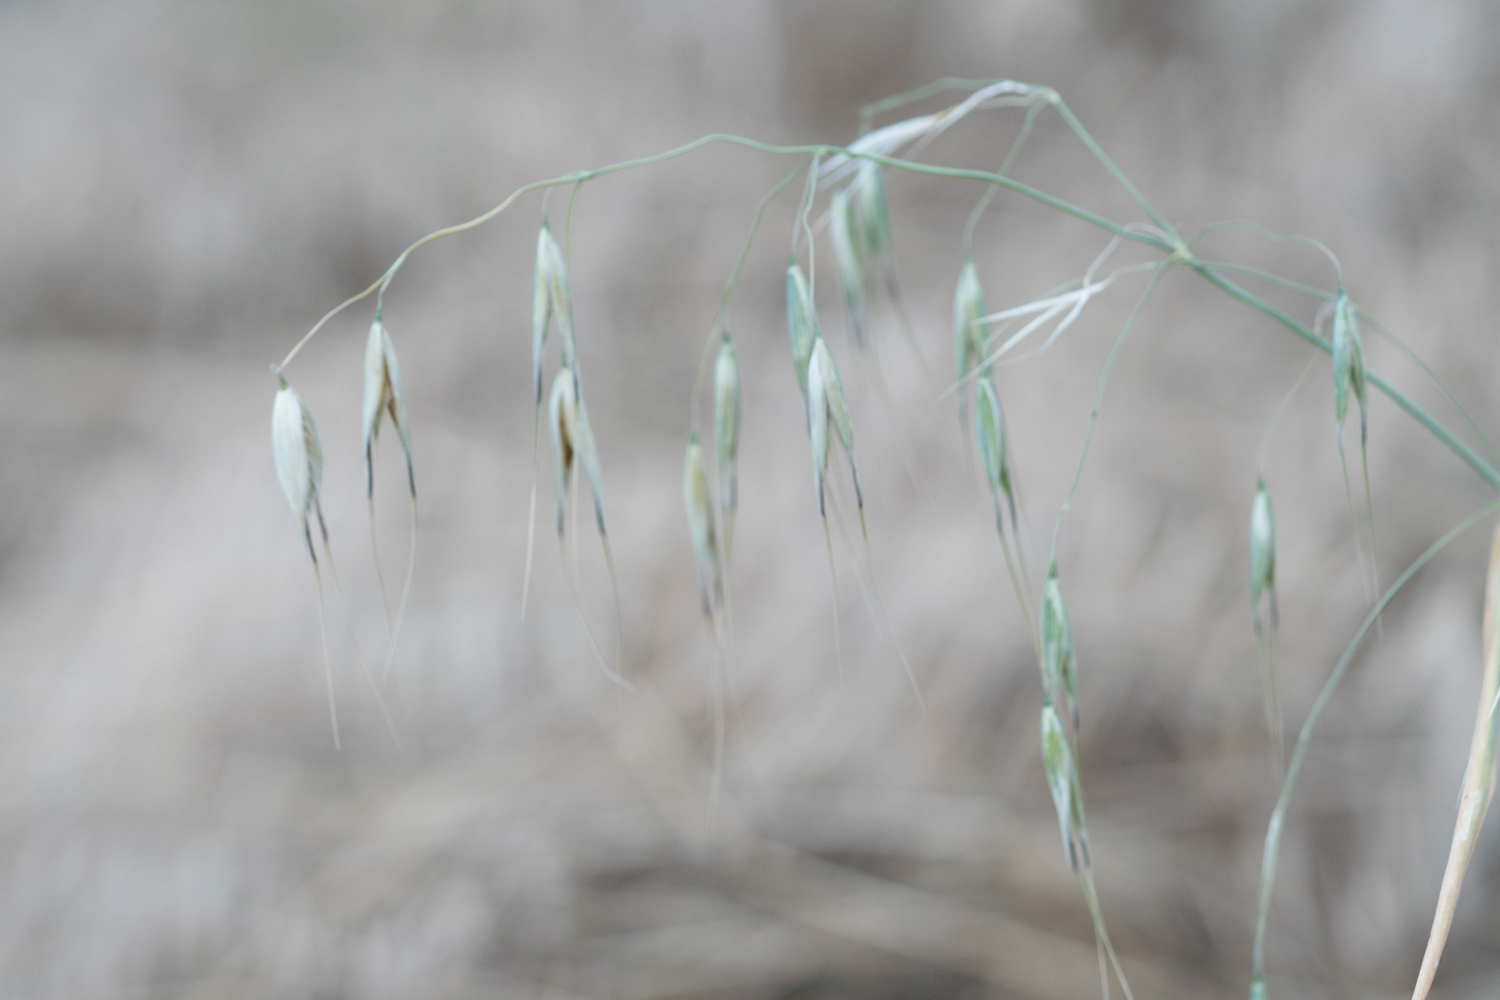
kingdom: Plantae
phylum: Tracheophyta
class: Liliopsida
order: Poales
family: Poaceae
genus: Avena
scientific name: Avena fatua
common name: Wild oat
